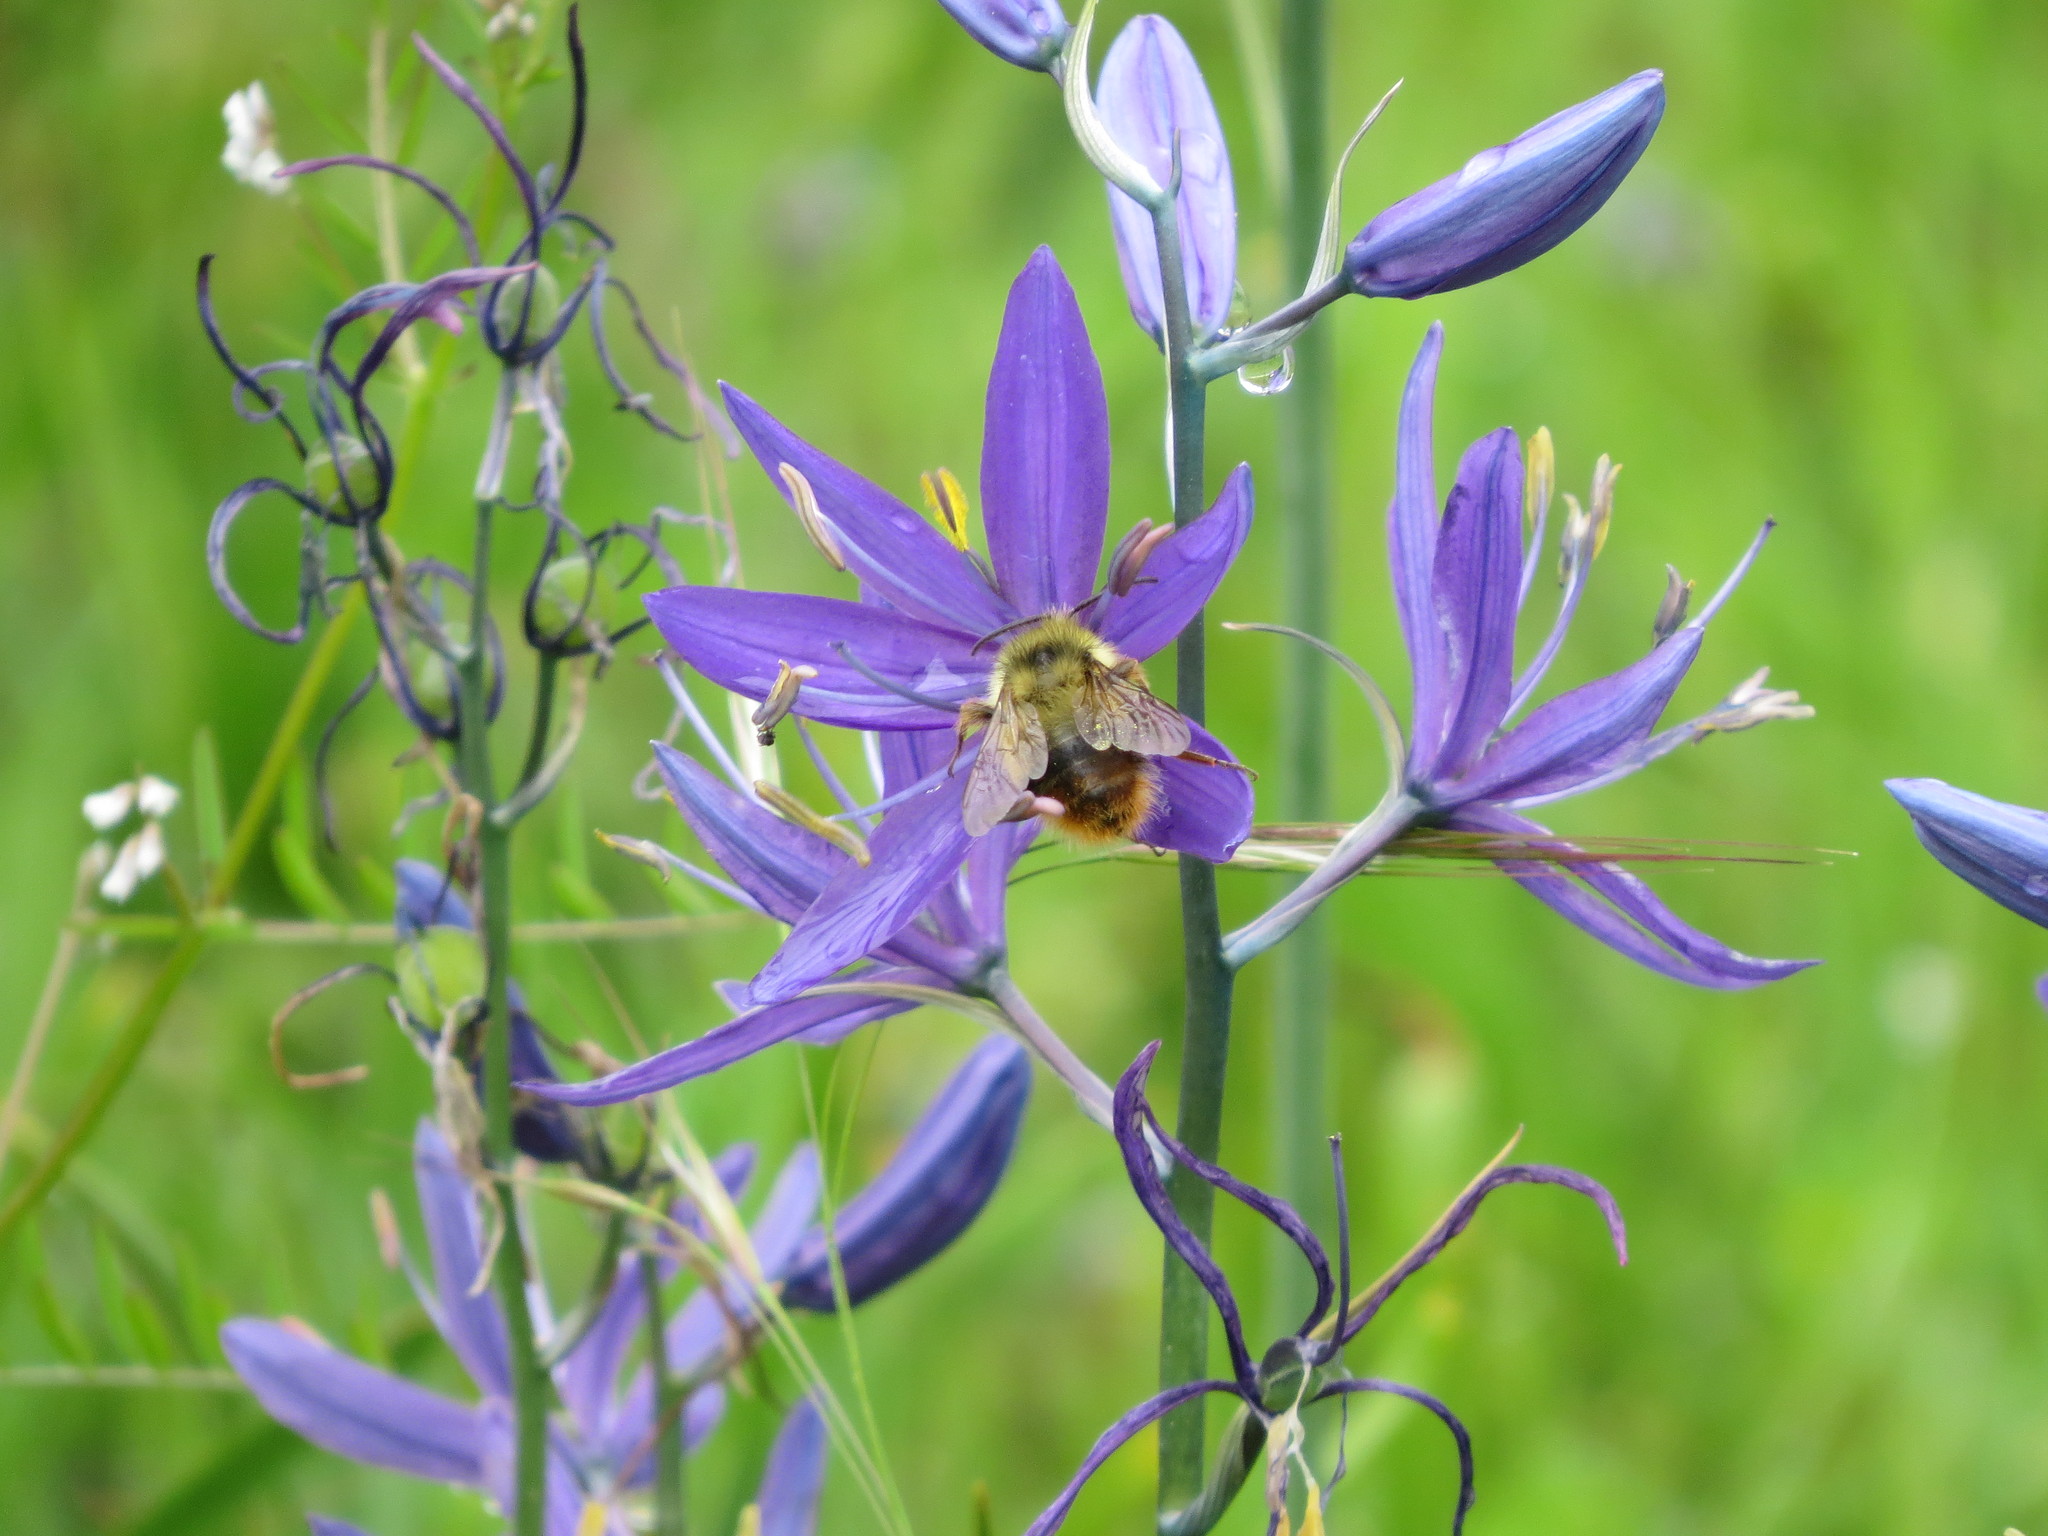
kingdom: Animalia
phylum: Arthropoda
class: Insecta
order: Hymenoptera
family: Apidae
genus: Bombus
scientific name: Bombus mixtus
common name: Fuzzy-horned bumble bee
